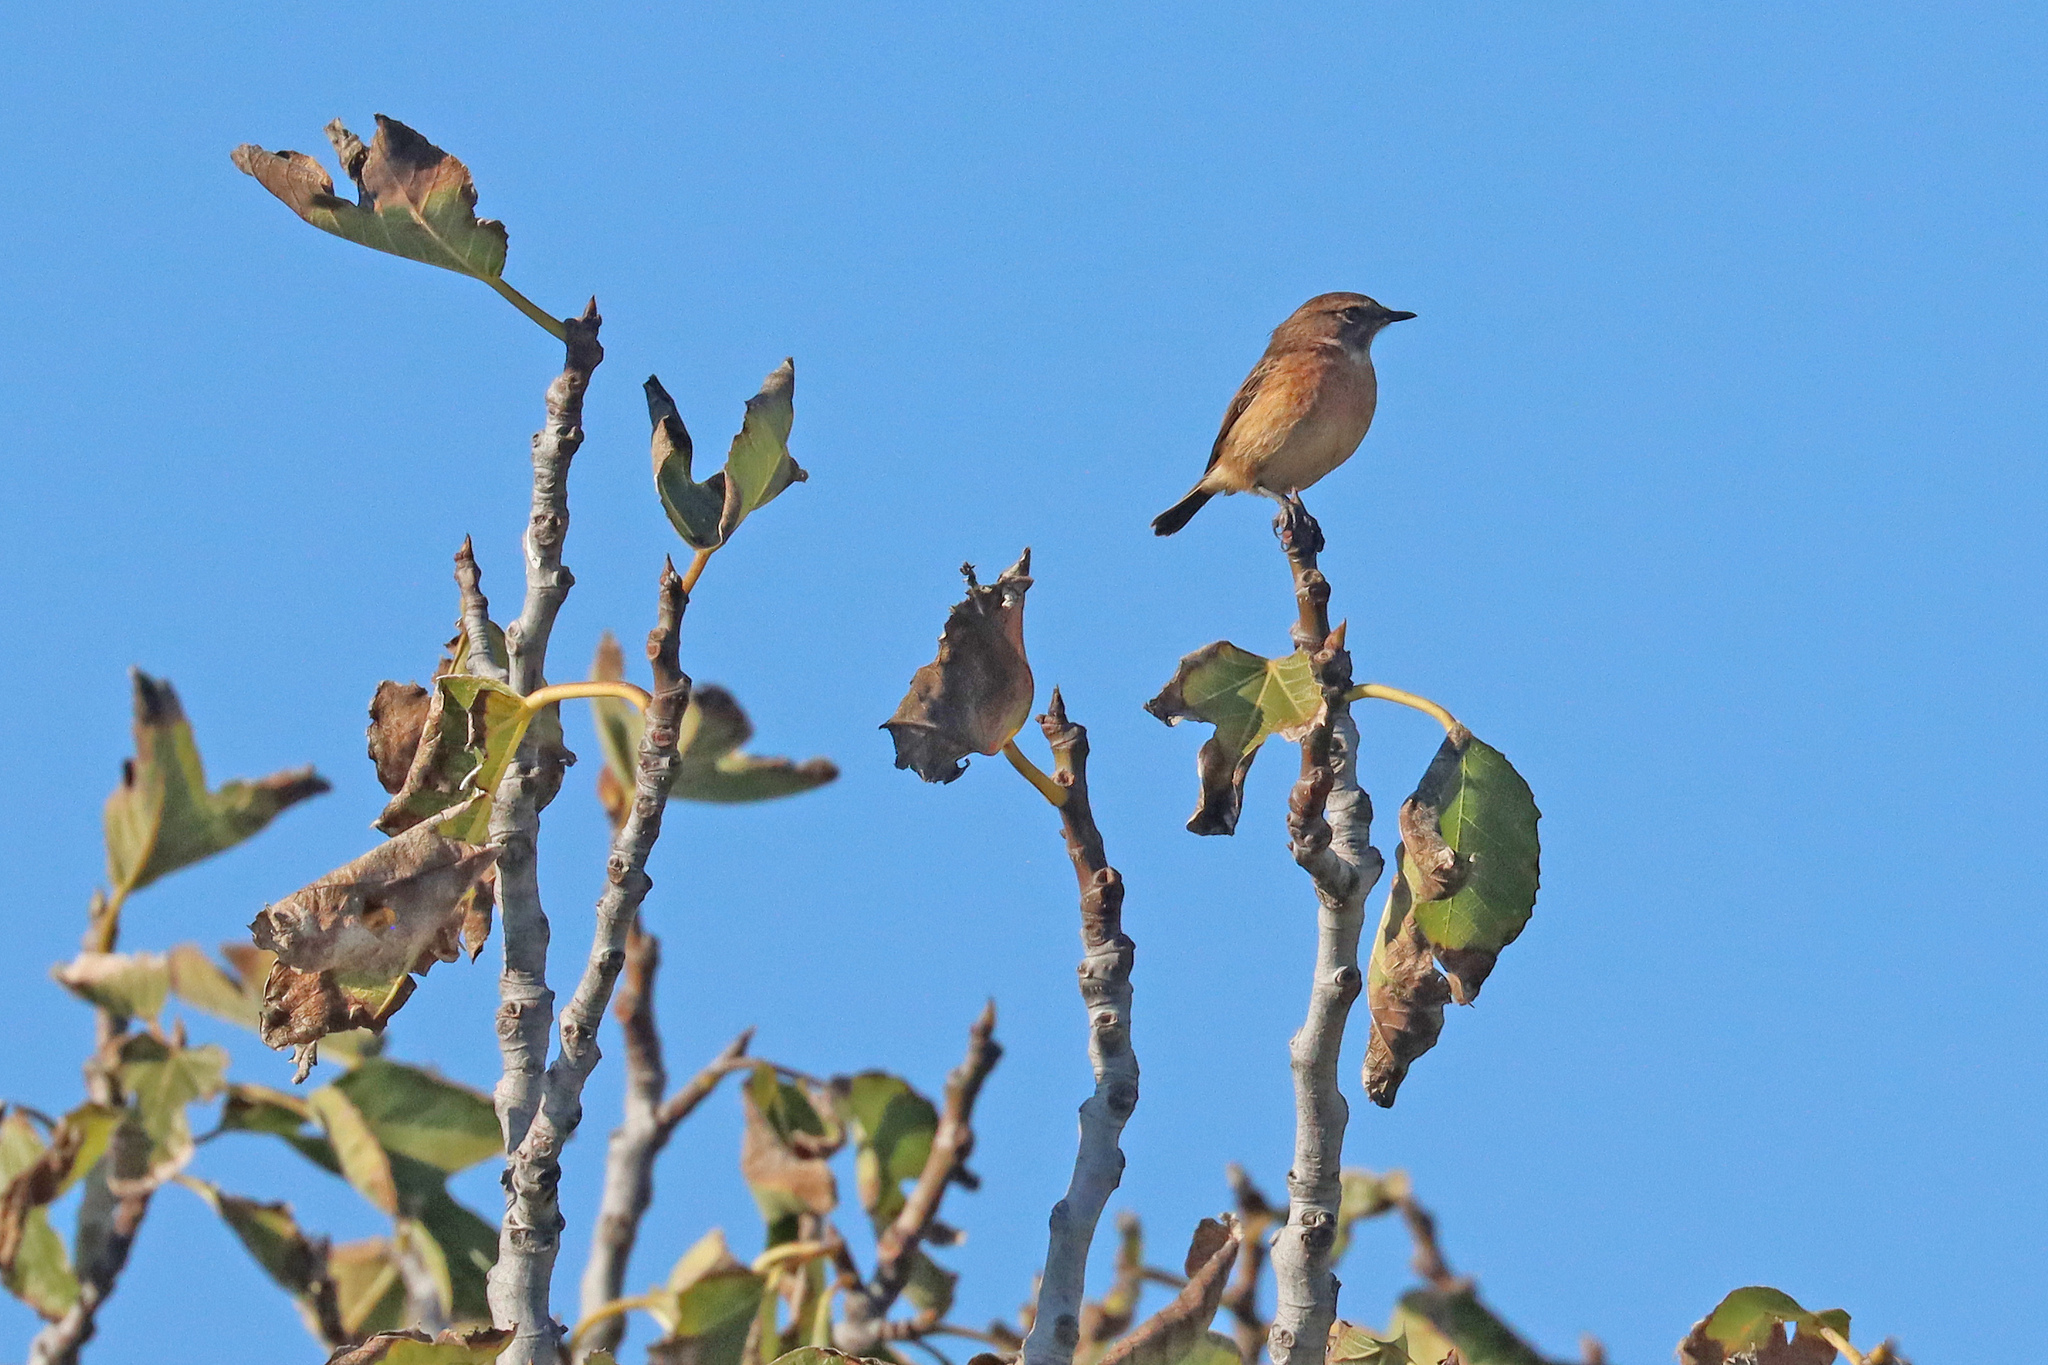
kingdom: Animalia
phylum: Chordata
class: Aves
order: Passeriformes
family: Muscicapidae
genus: Saxicola
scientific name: Saxicola rubicola
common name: European stonechat
